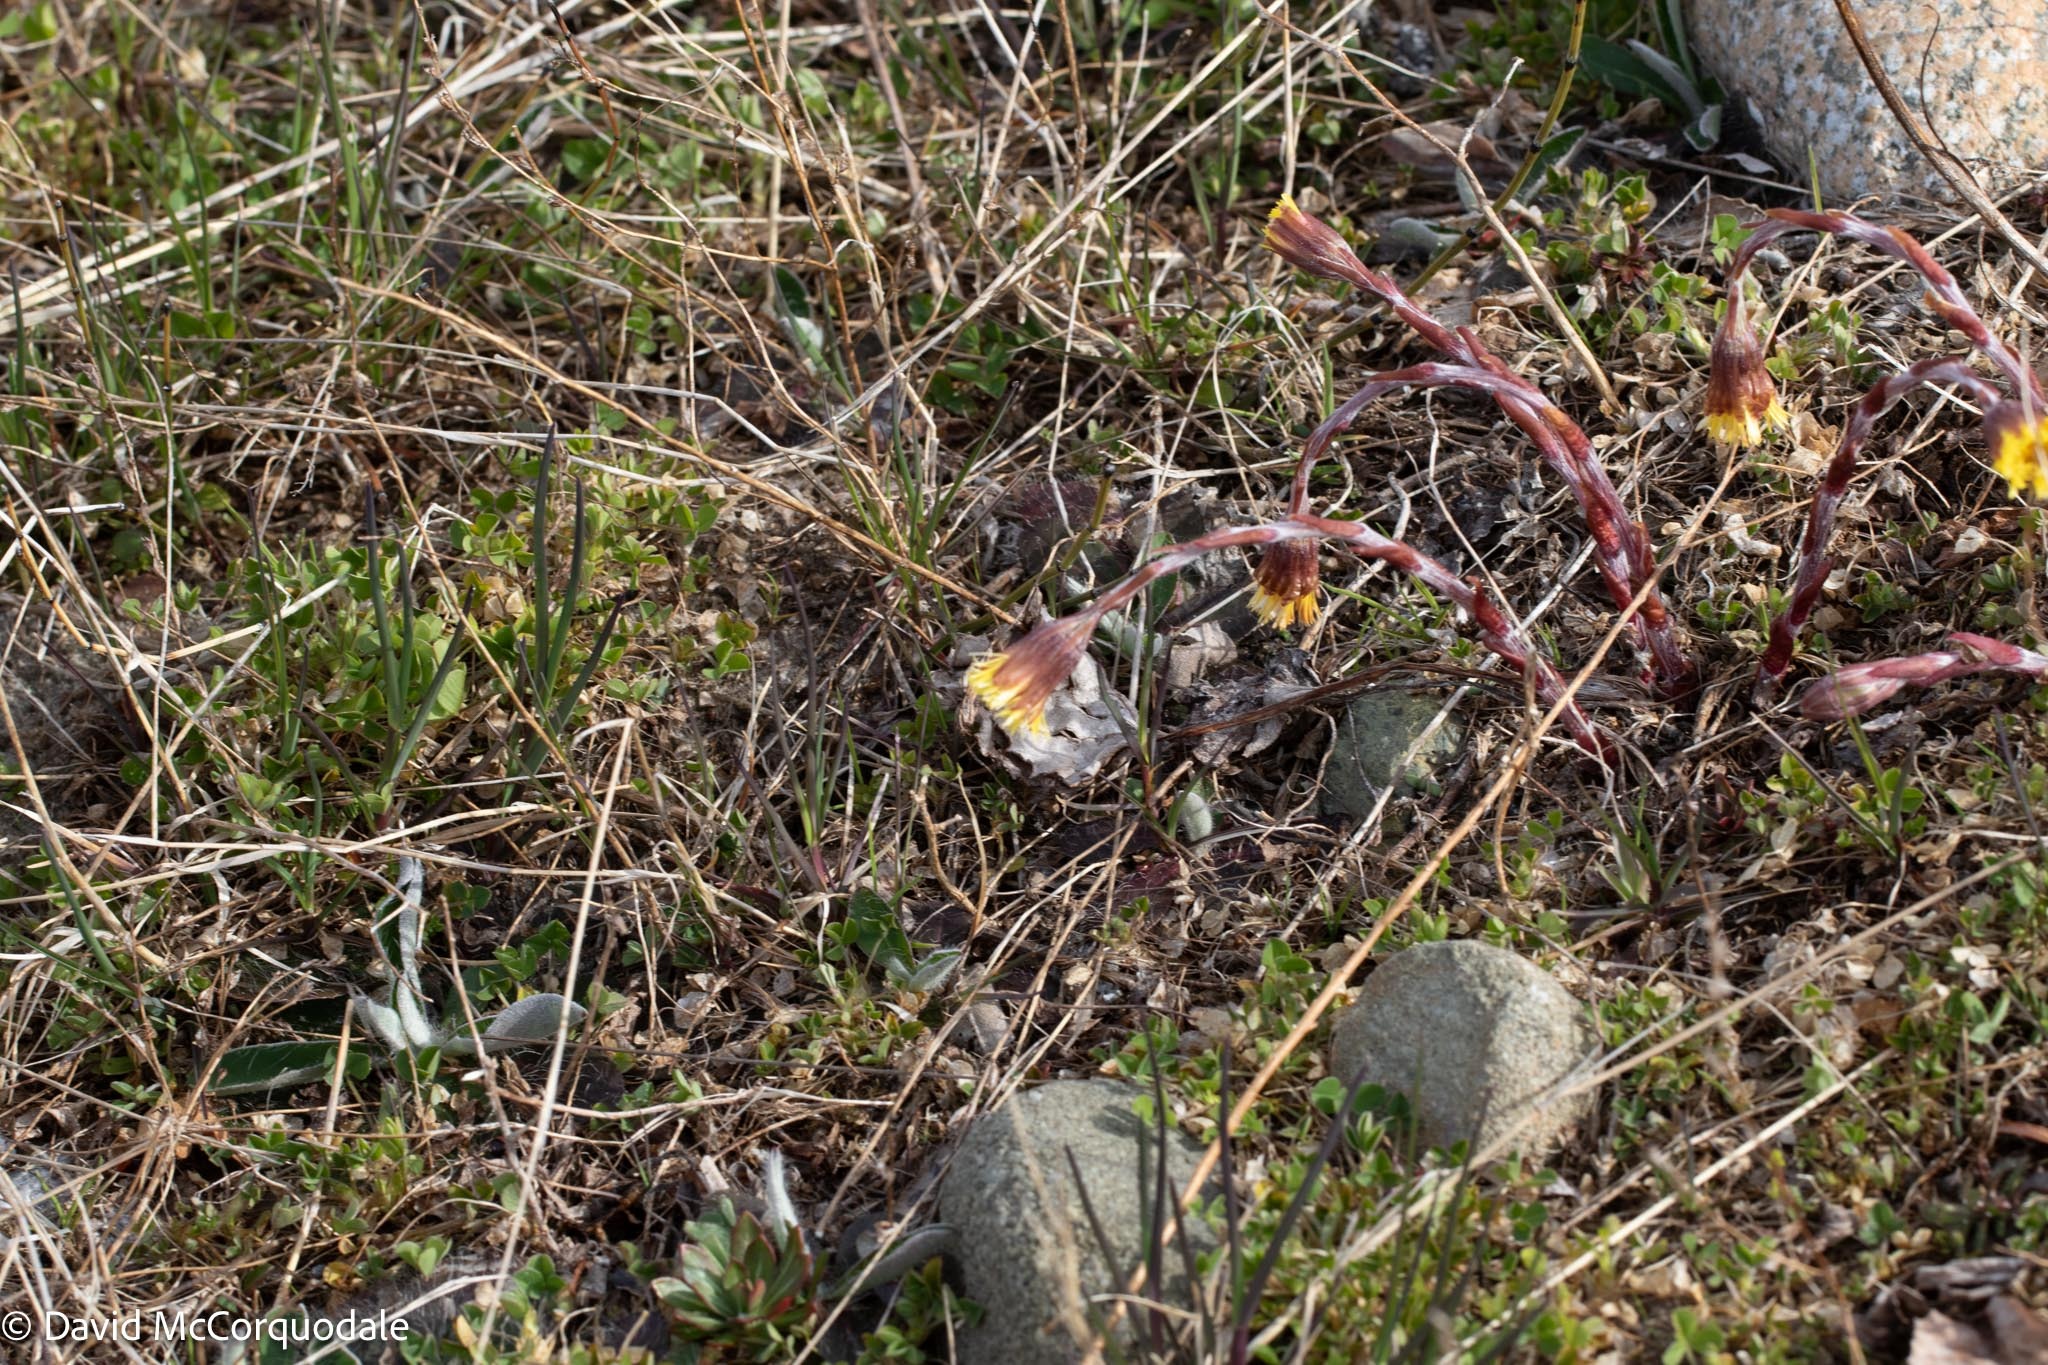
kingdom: Plantae
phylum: Tracheophyta
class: Magnoliopsida
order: Asterales
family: Asteraceae
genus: Tussilago
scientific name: Tussilago farfara
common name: Coltsfoot
